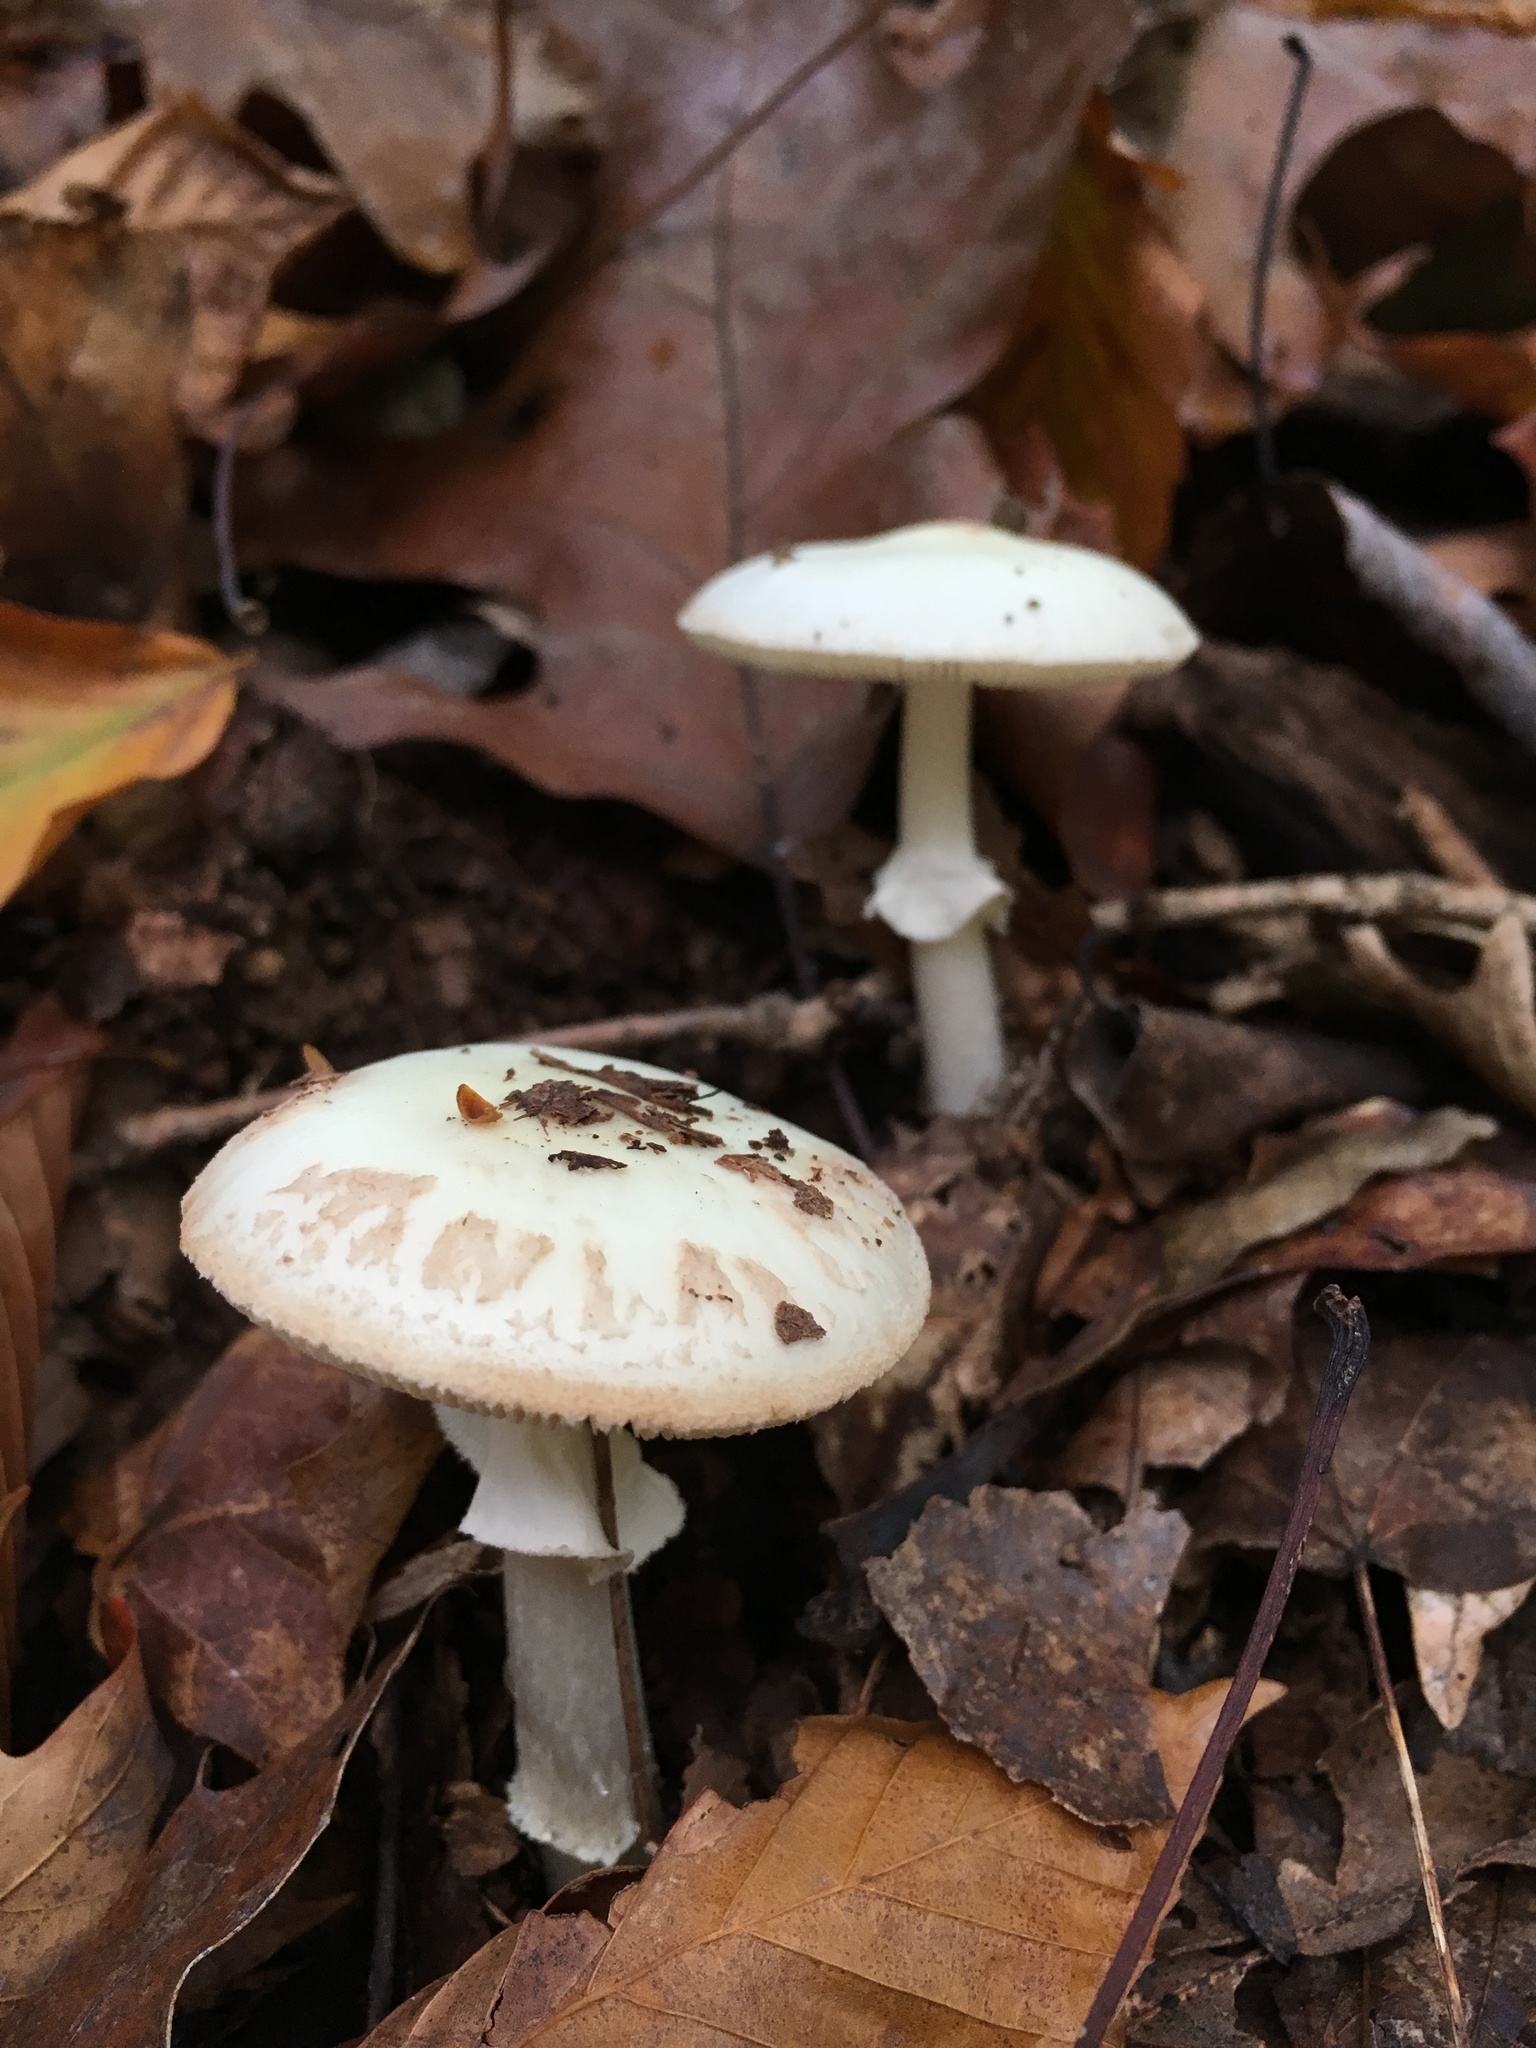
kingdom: Fungi
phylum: Basidiomycota
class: Agaricomycetes
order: Agaricales
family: Amanitaceae
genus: Amanita
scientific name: Amanita lavendula
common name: Coker's lavender staining amanita
